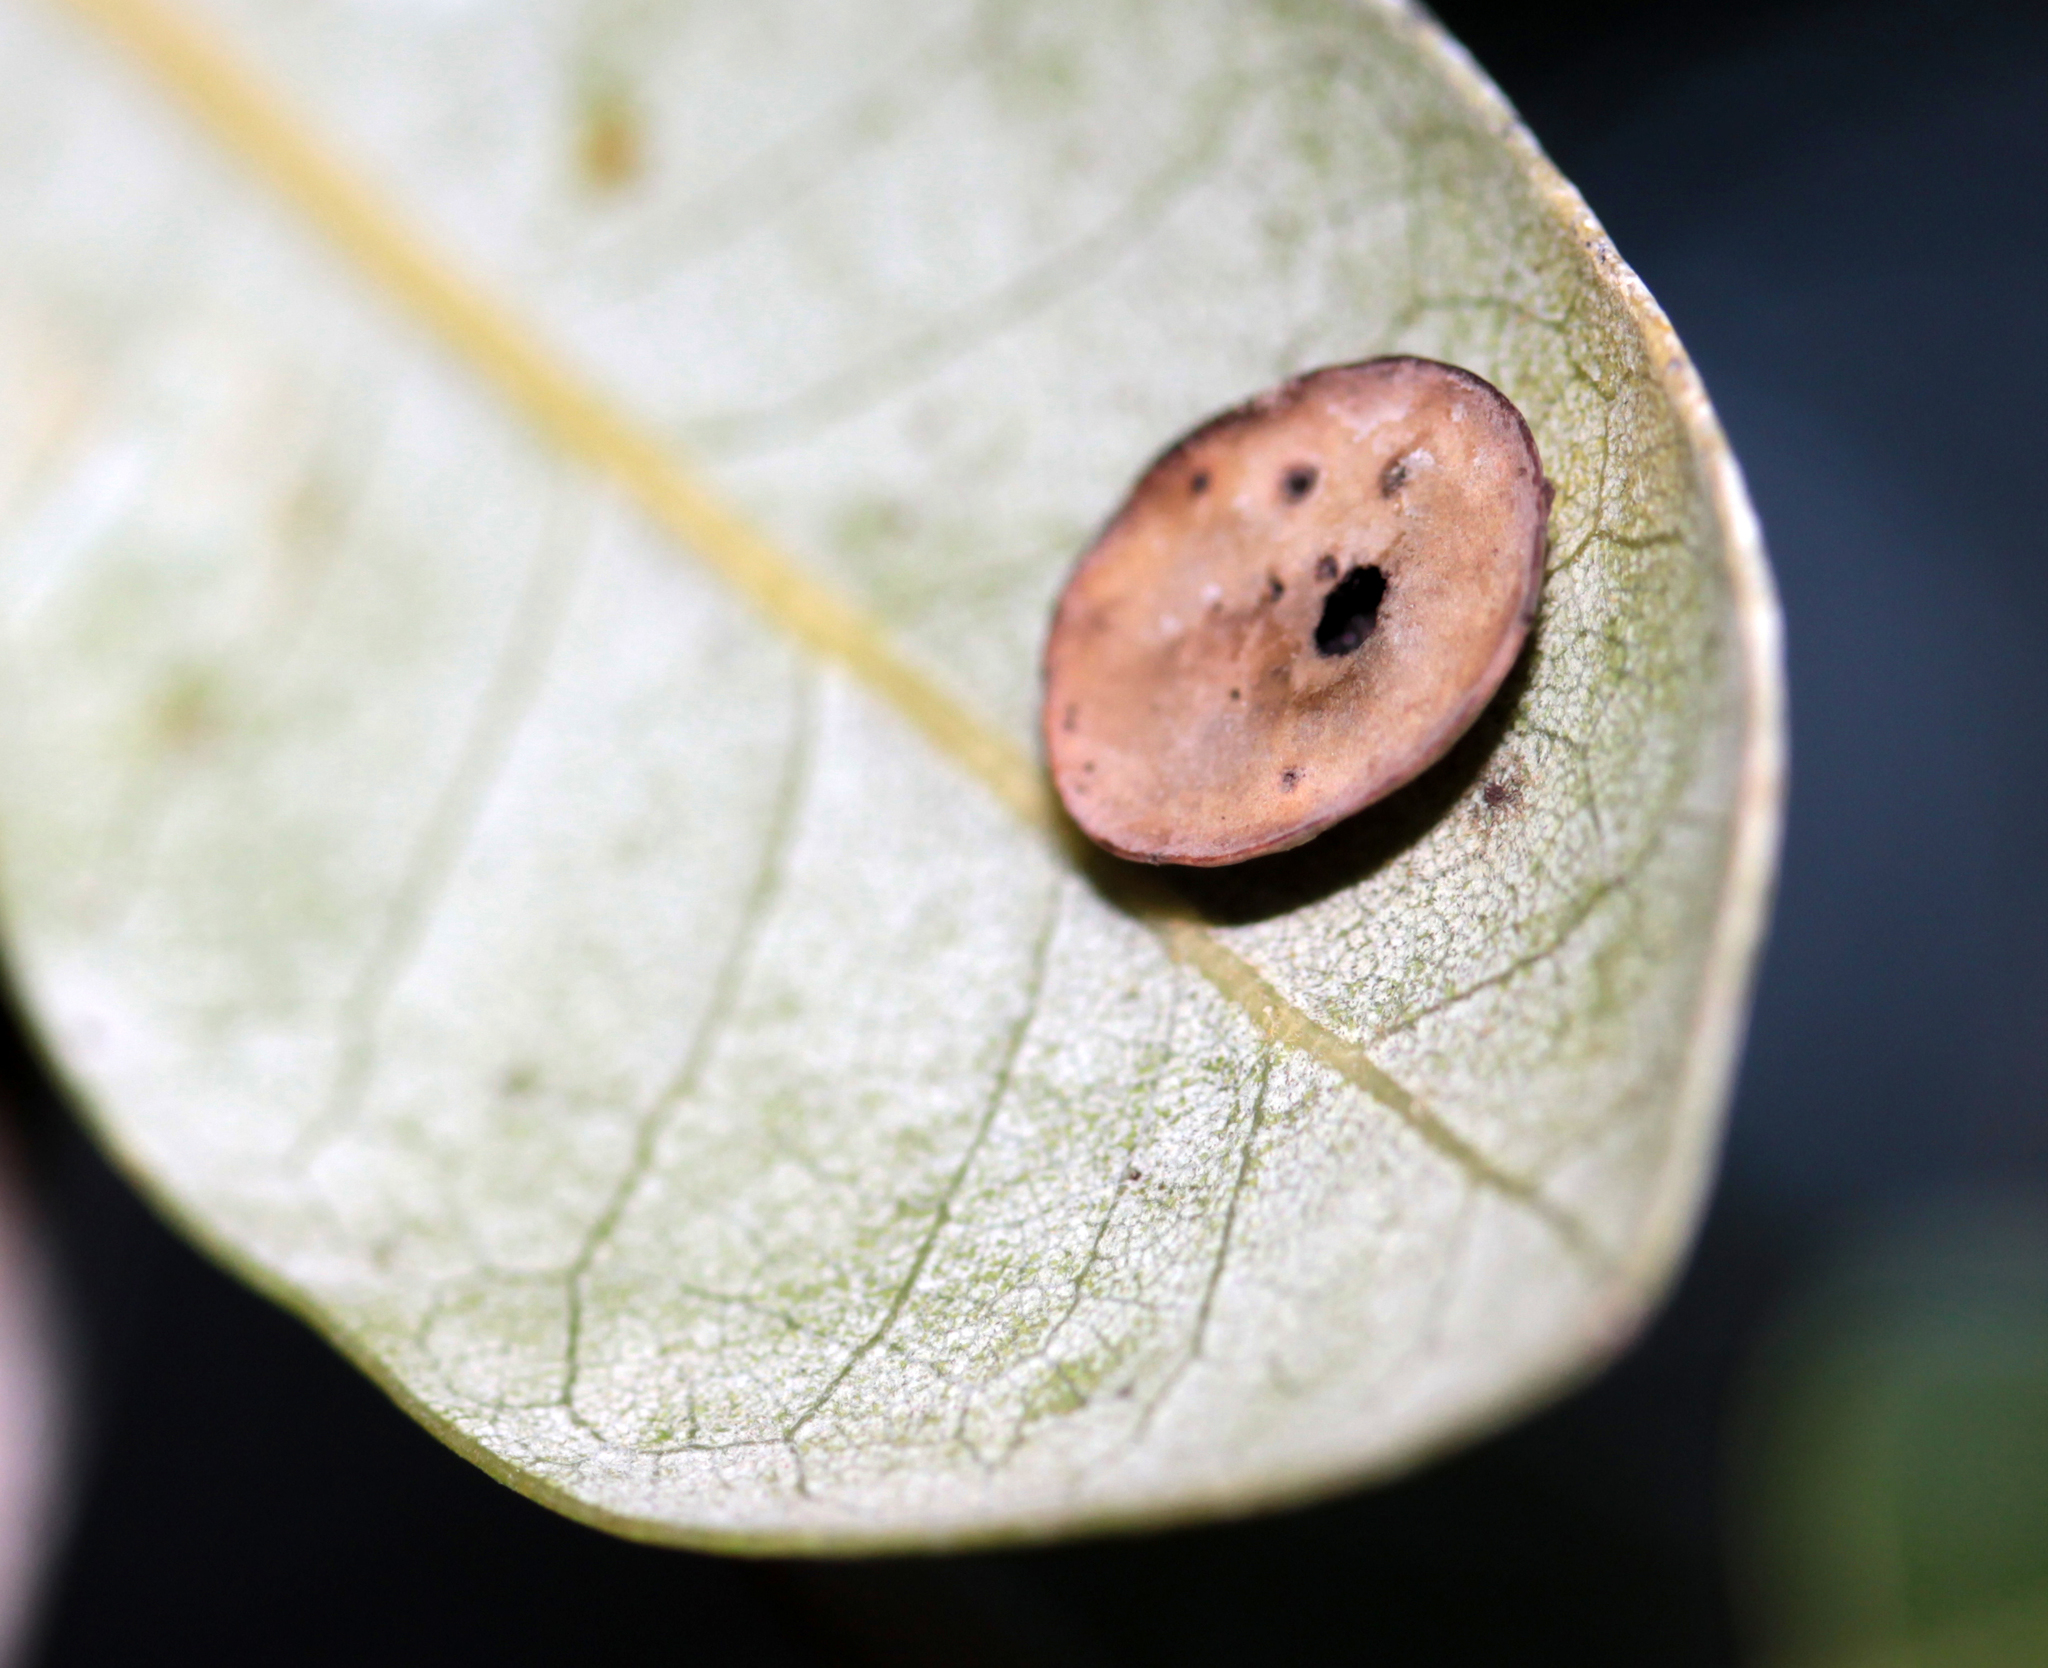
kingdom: Animalia
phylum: Arthropoda
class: Insecta
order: Hymenoptera
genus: Paracraspis
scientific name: Paracraspis
